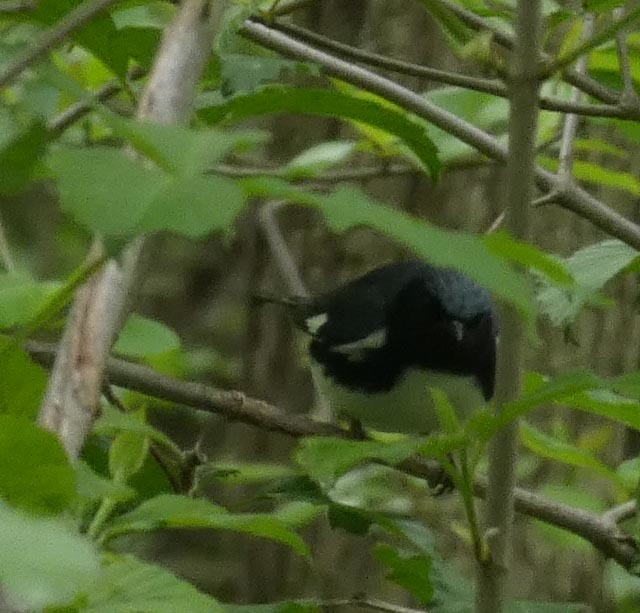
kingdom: Animalia
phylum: Chordata
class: Aves
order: Passeriformes
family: Parulidae
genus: Setophaga
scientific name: Setophaga caerulescens
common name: Black-throated blue warbler
